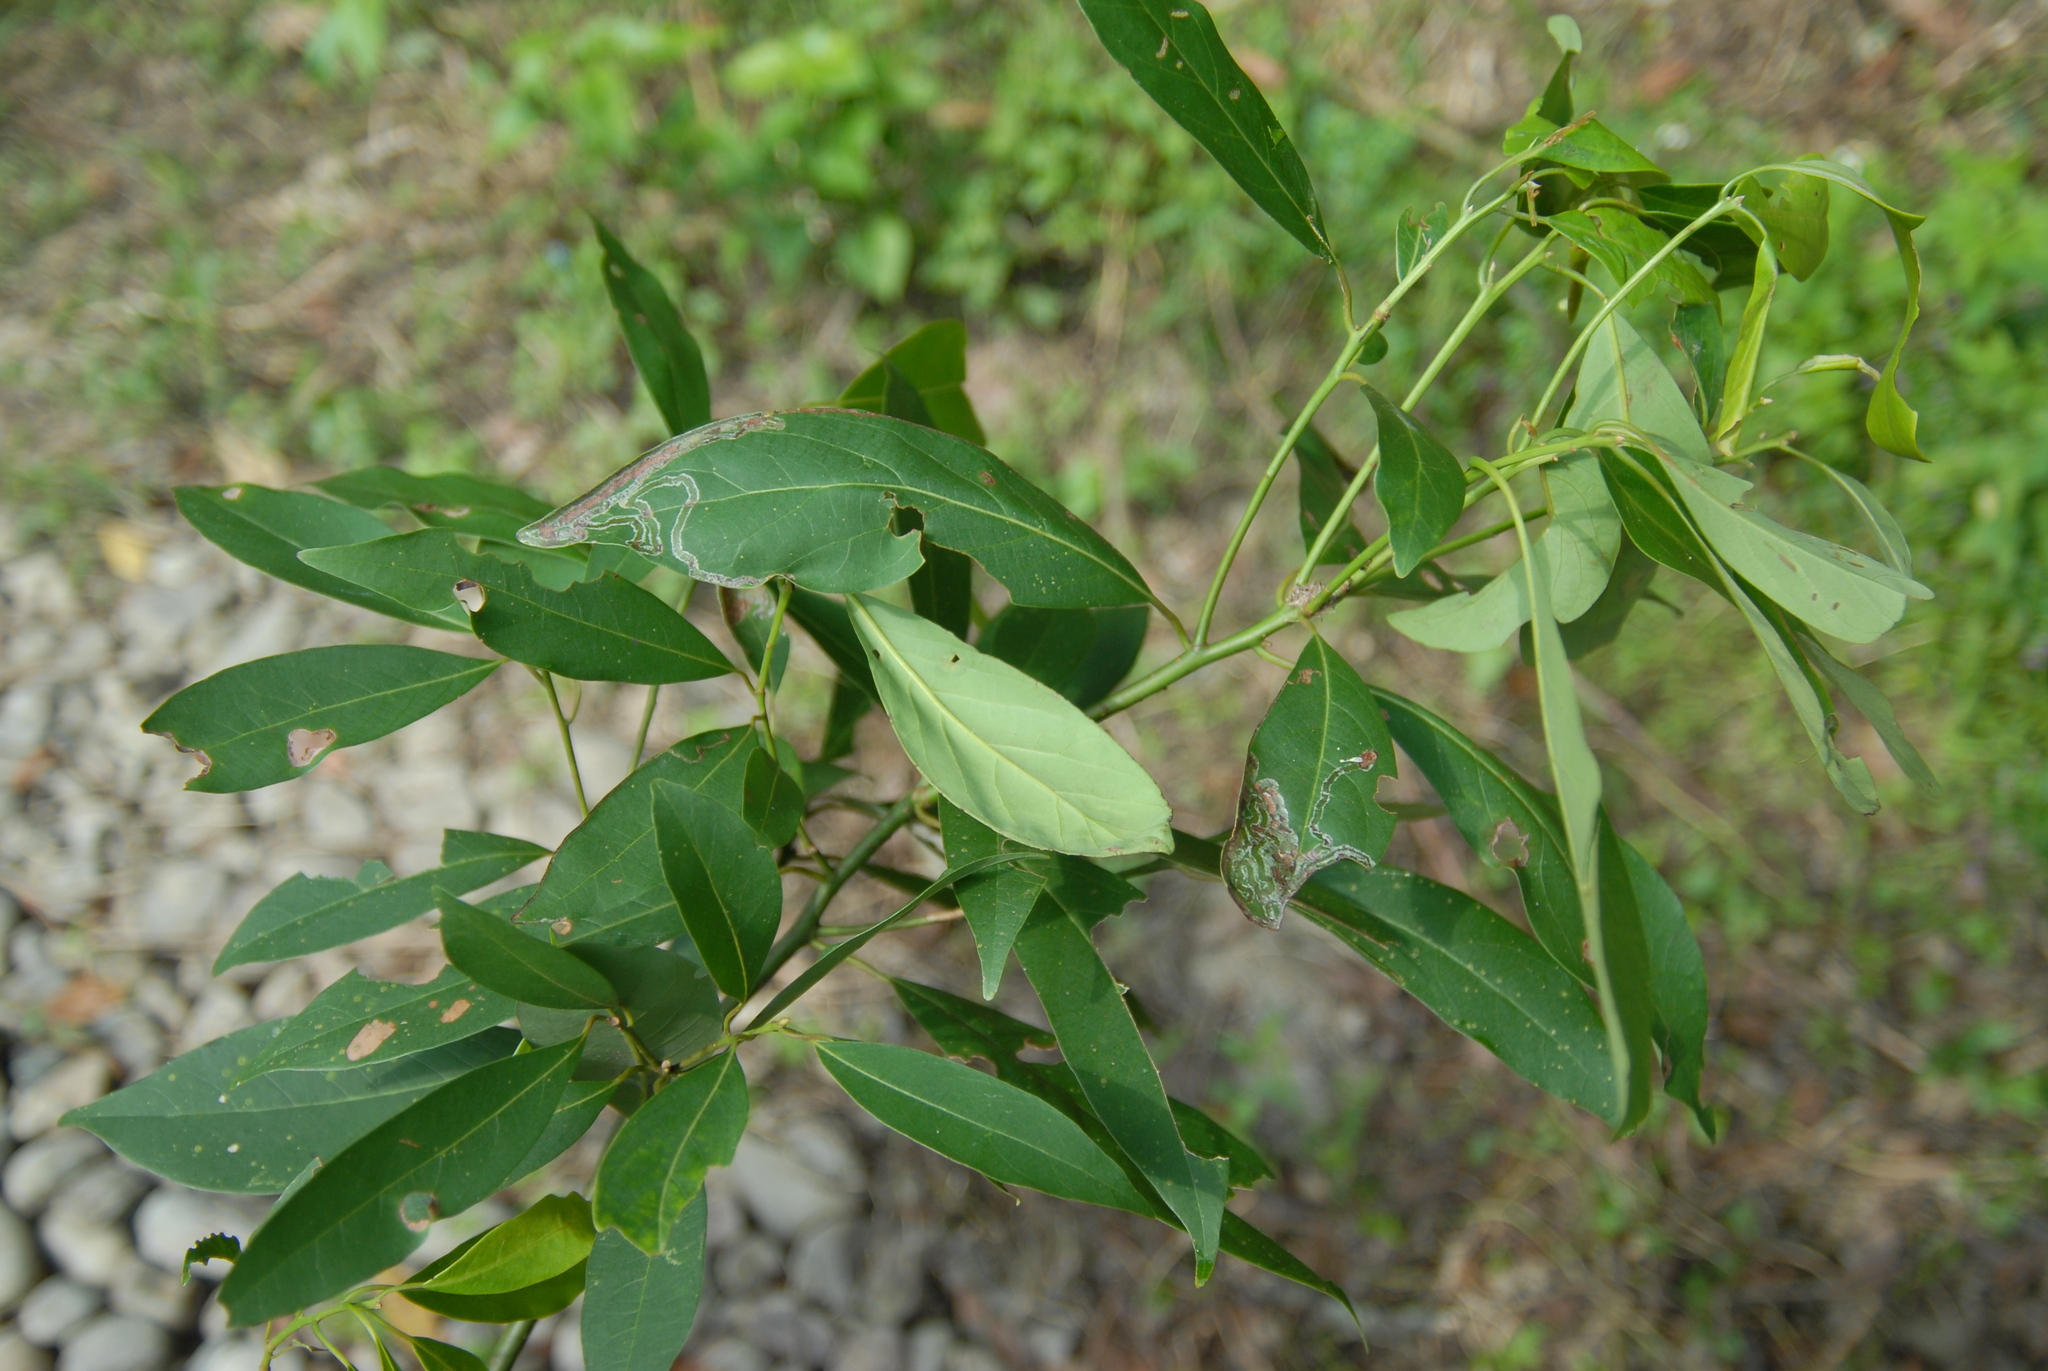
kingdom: Plantae
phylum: Tracheophyta
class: Magnoliopsida
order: Laurales
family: Lauraceae
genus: Machilus
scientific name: Machilus zuihoensis
